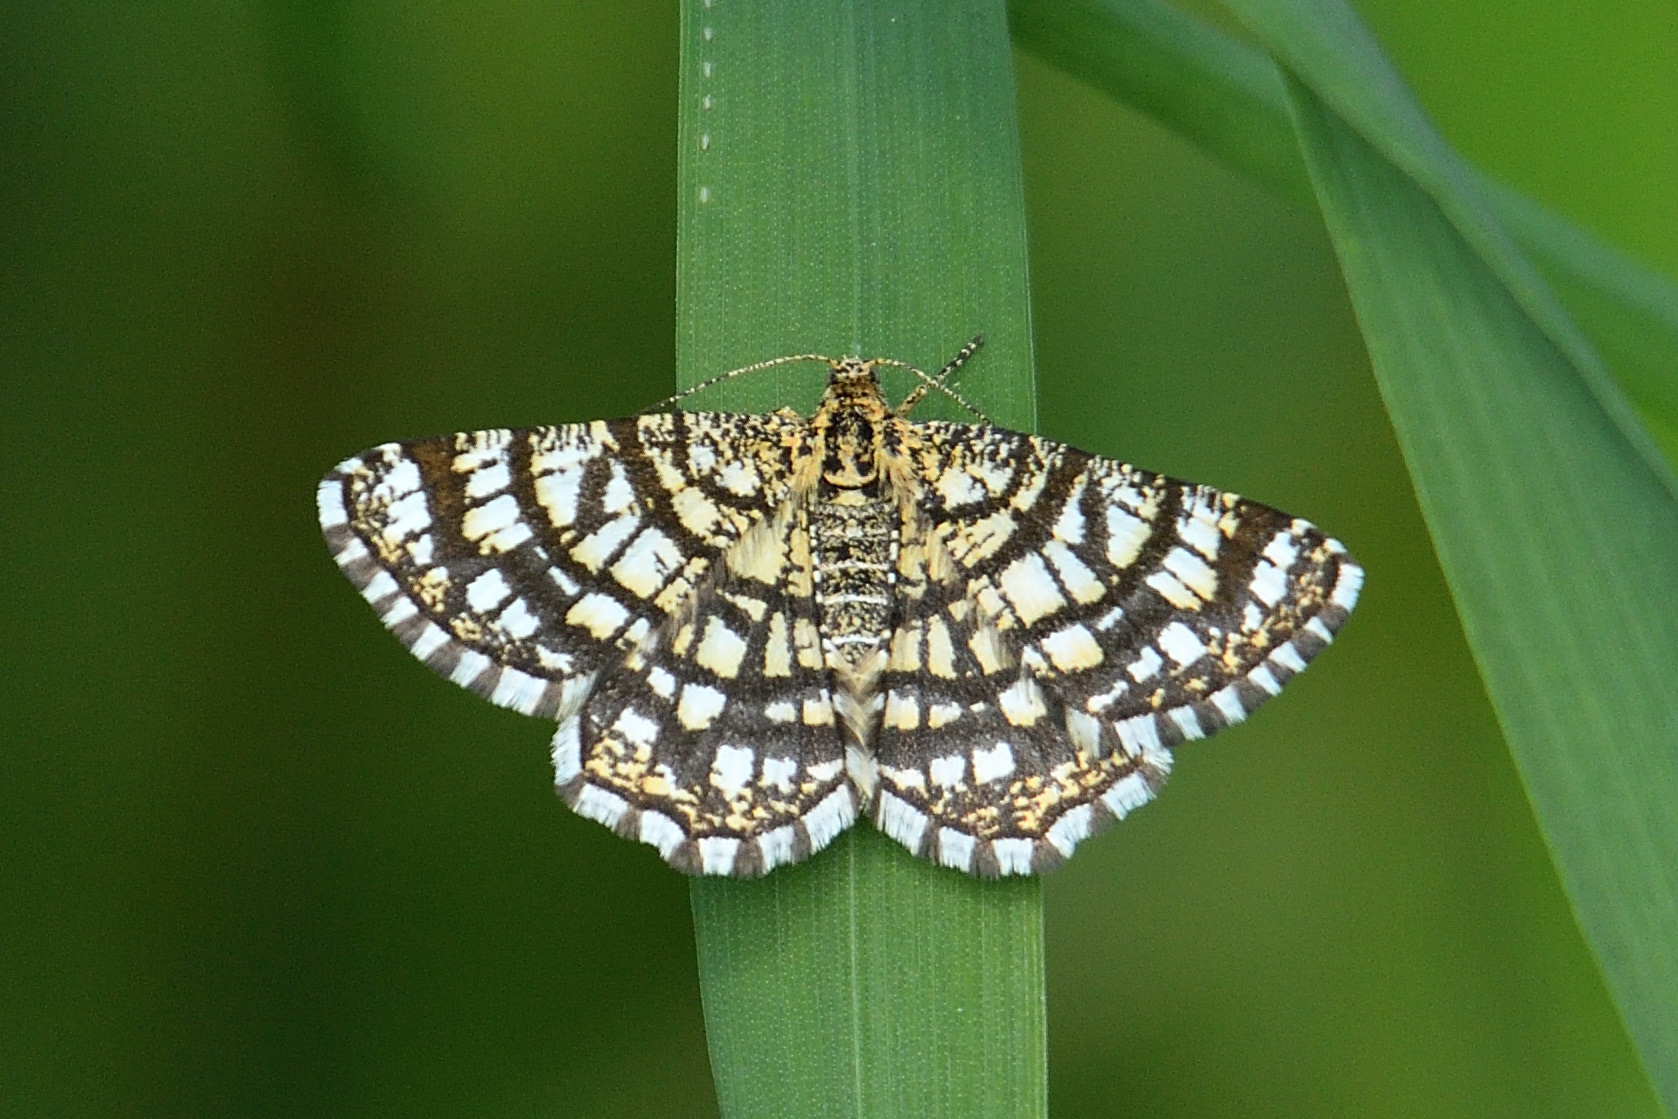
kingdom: Animalia
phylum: Arthropoda
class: Insecta
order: Lepidoptera
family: Geometridae
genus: Chiasmia
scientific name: Chiasmia clathrata
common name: Latticed heath
